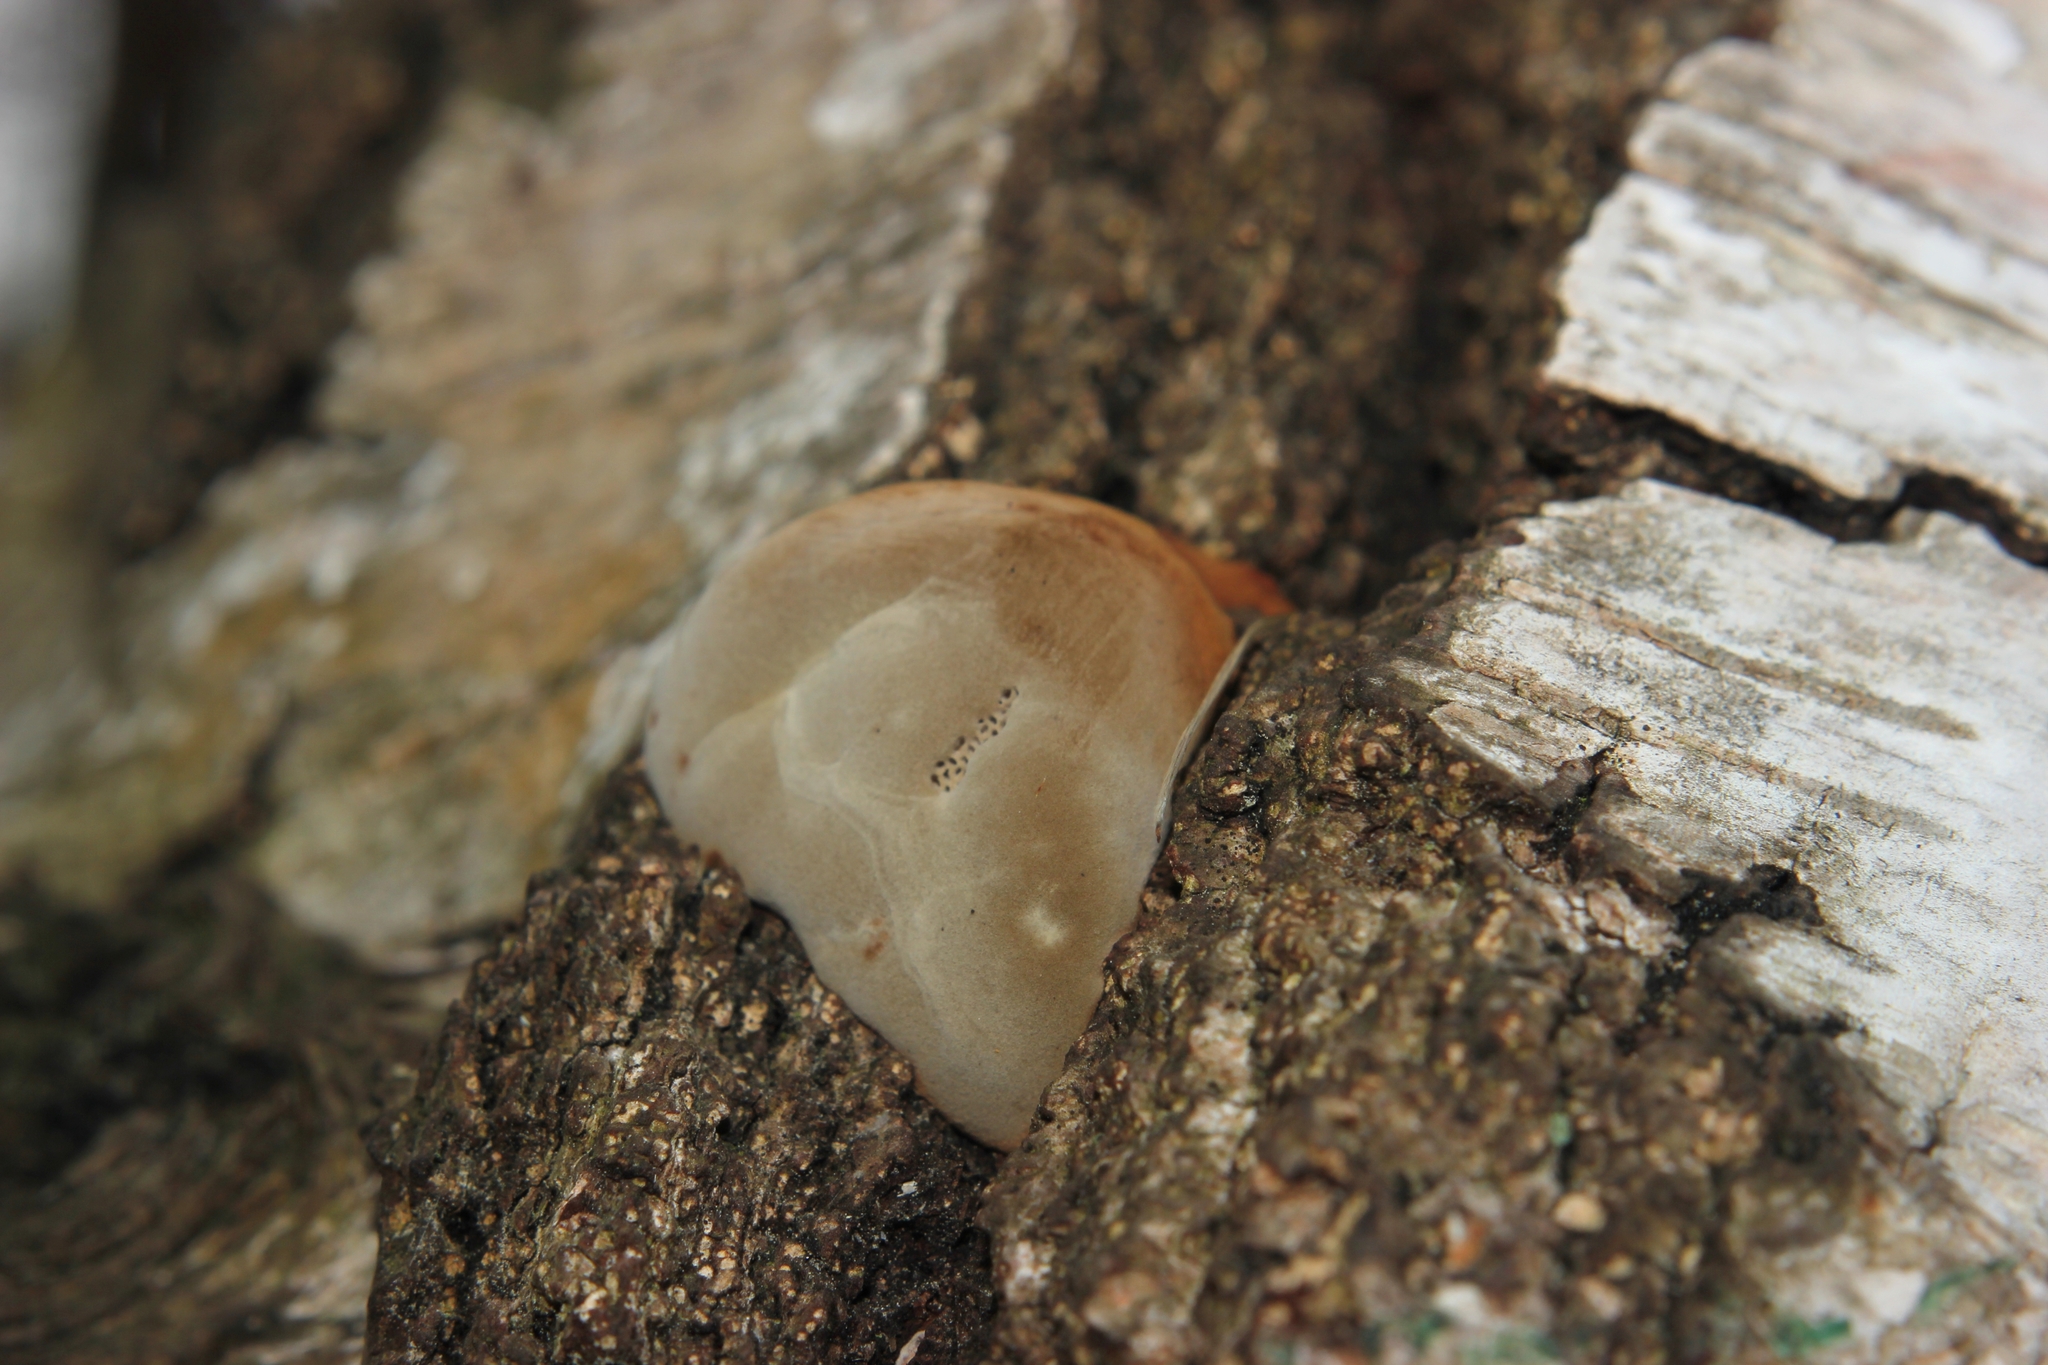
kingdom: Fungi
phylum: Basidiomycota
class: Agaricomycetes
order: Polyporales
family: Polyporaceae
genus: Fomes
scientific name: Fomes fomentarius
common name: Hoof fungus
